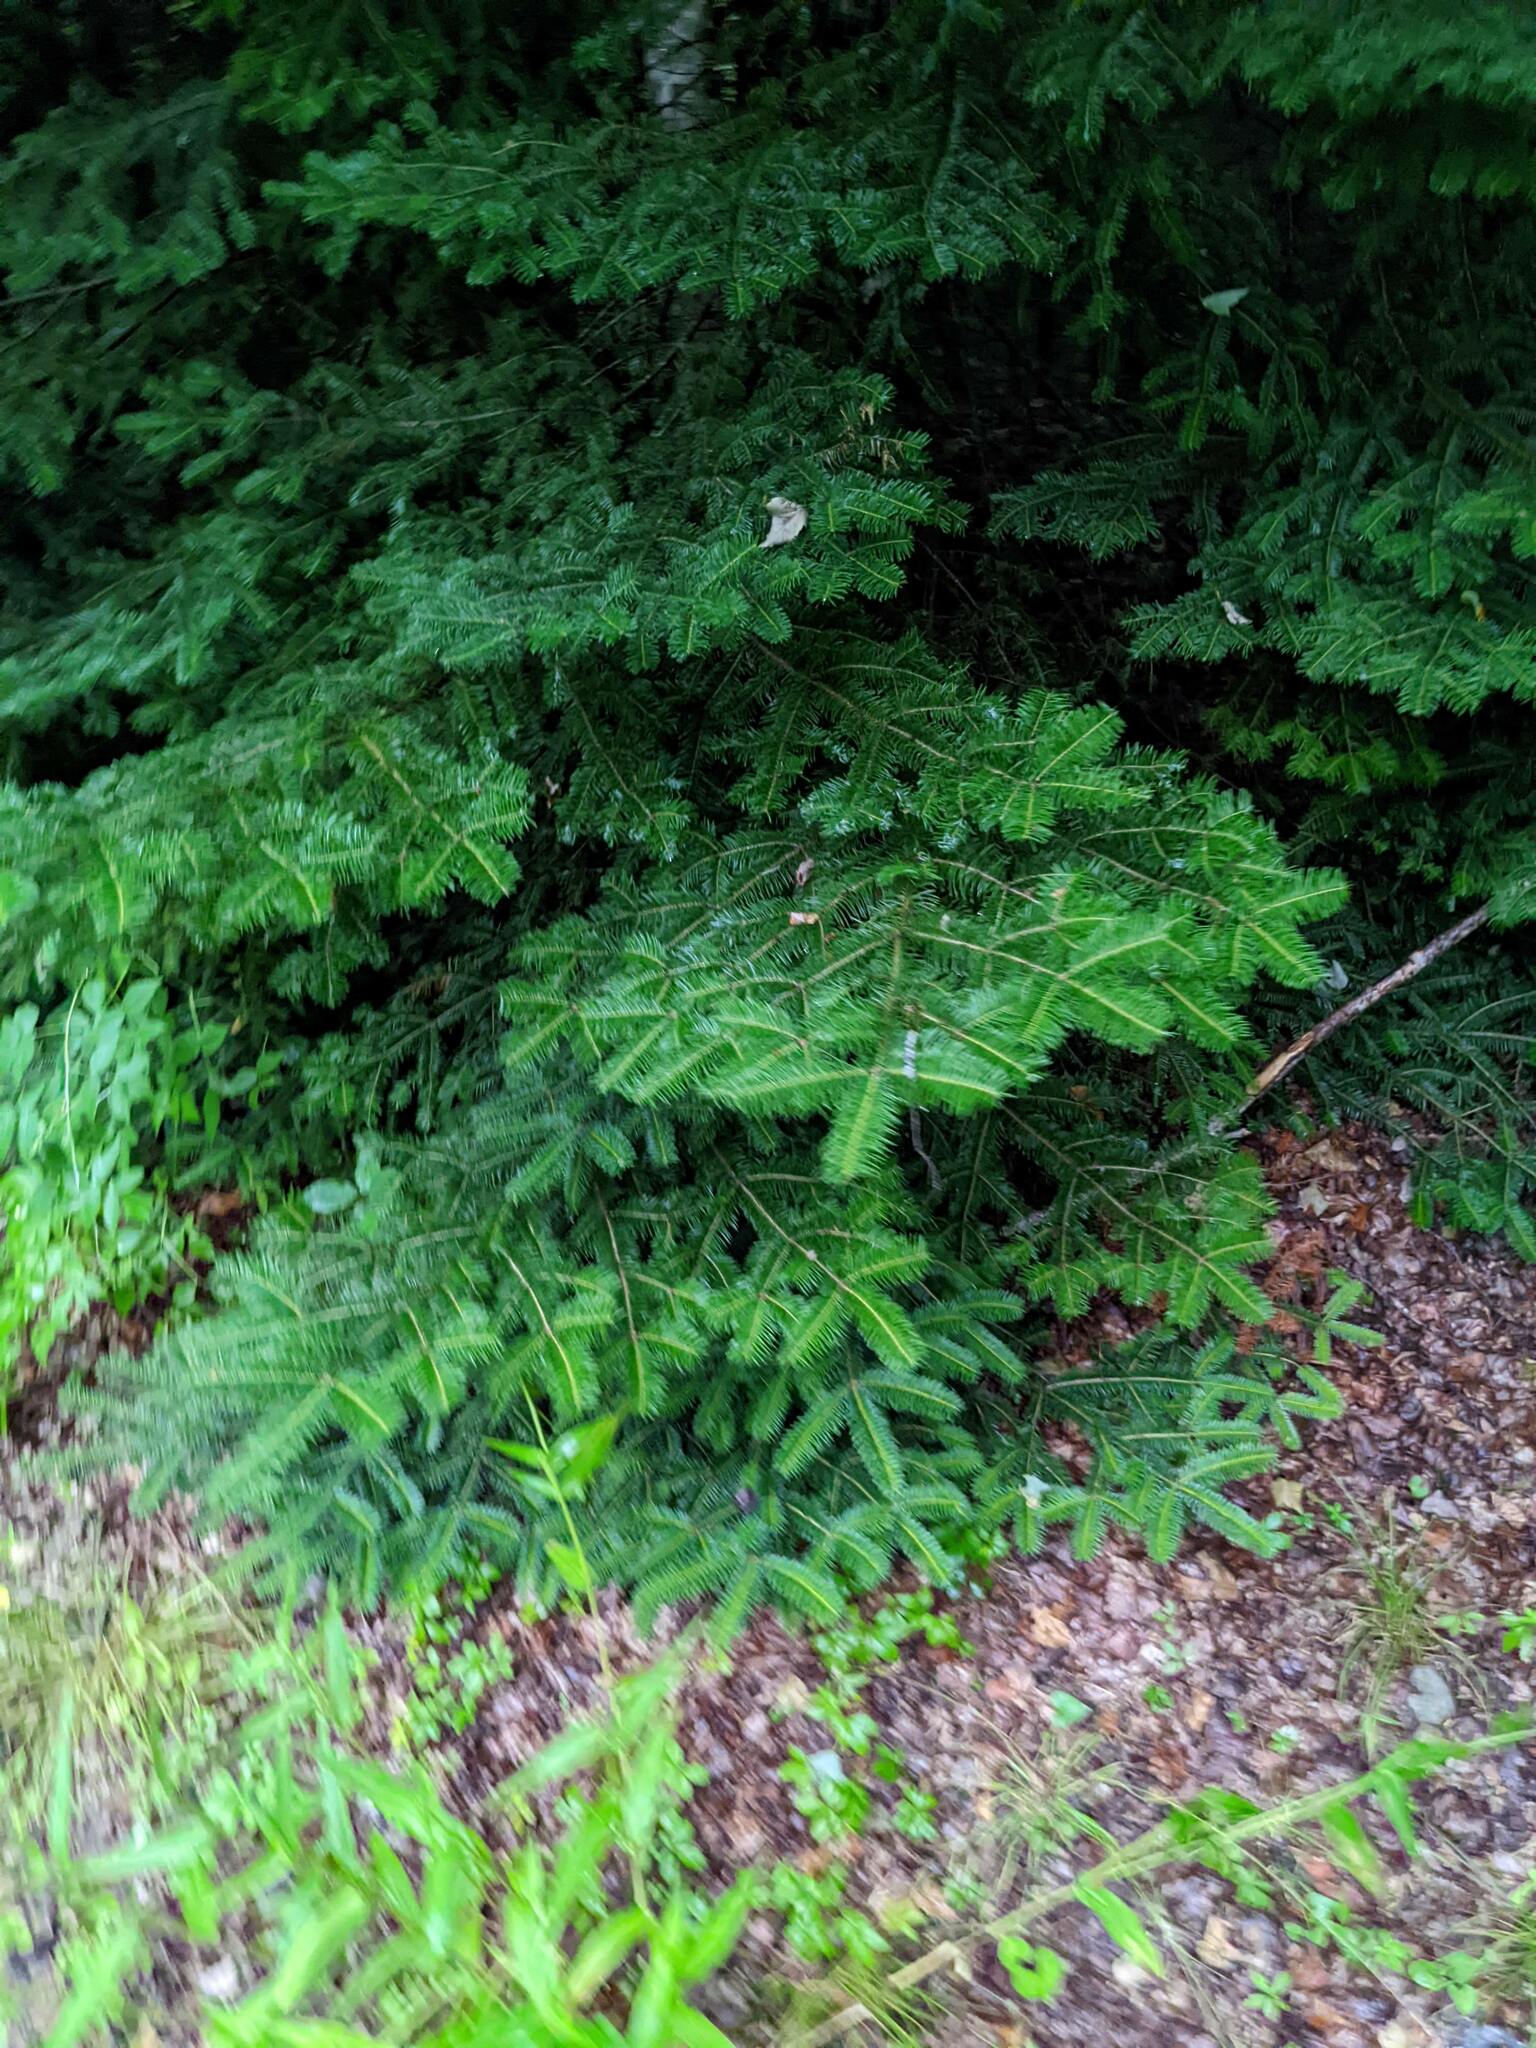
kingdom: Plantae
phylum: Tracheophyta
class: Pinopsida
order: Pinales
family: Pinaceae
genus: Abies
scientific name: Abies balsamea
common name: Balsam fir
